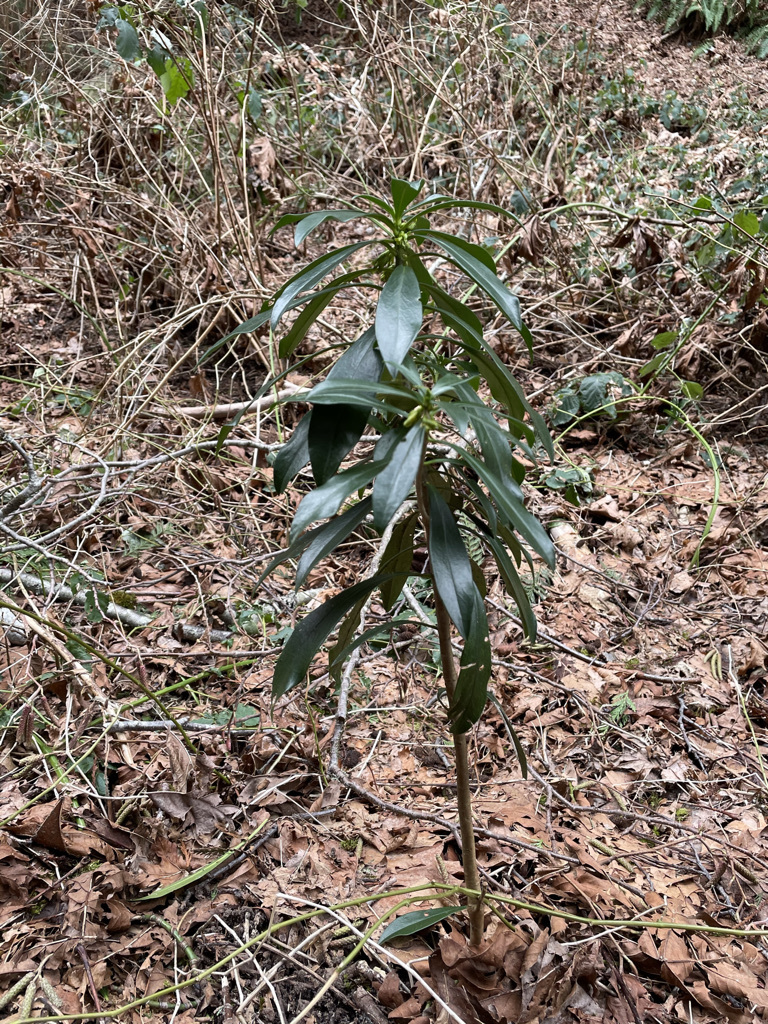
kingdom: Plantae
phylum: Tracheophyta
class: Magnoliopsida
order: Malvales
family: Thymelaeaceae
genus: Daphne
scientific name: Daphne laureola
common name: Spurge-laurel
